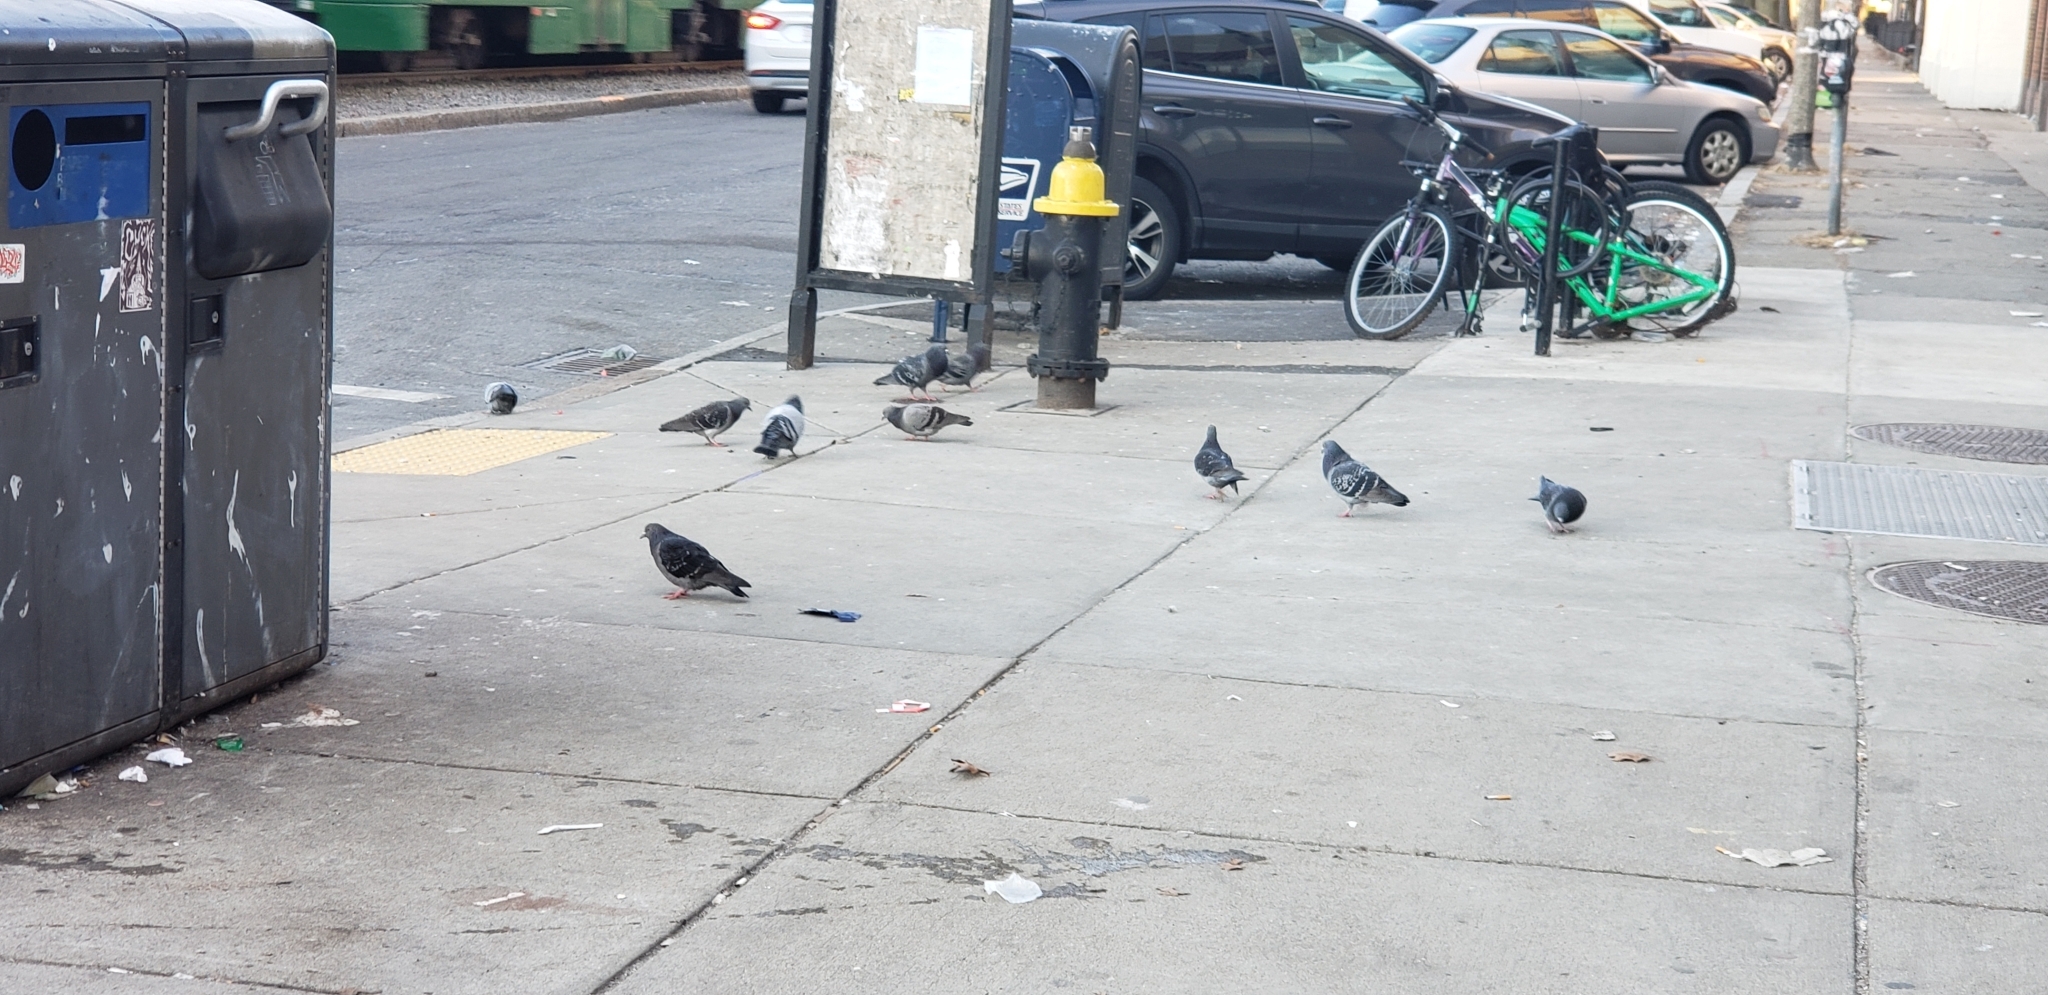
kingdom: Animalia
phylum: Chordata
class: Aves
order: Columbiformes
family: Columbidae
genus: Columba
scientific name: Columba livia
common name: Rock pigeon
